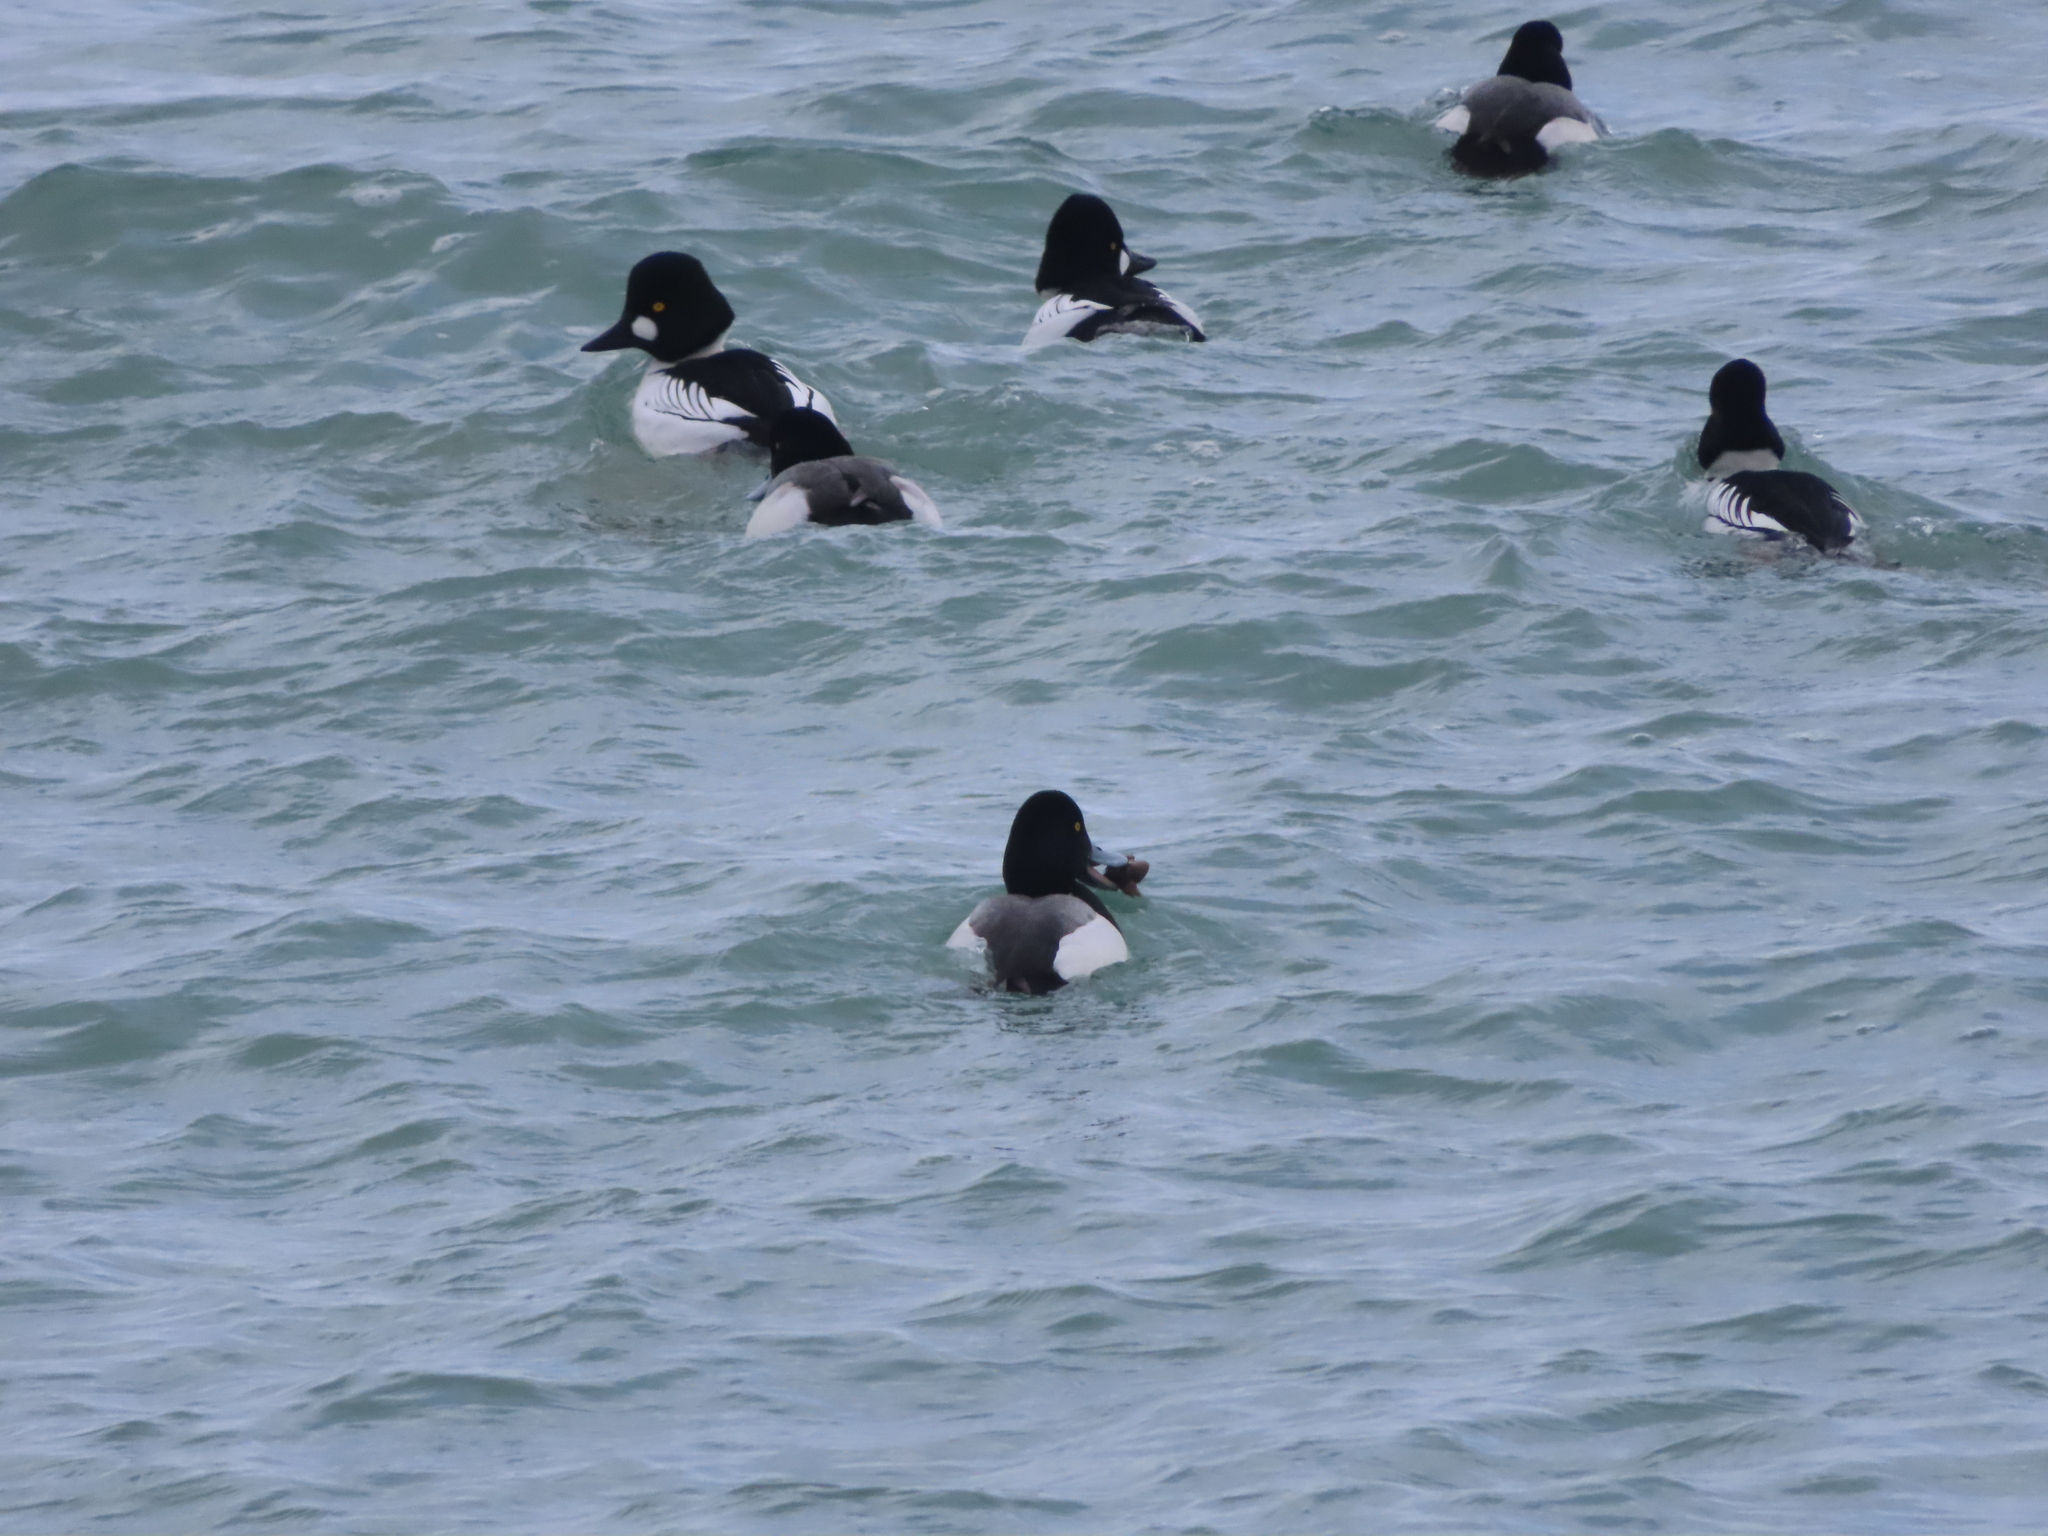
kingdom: Animalia
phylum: Chordata
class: Aves
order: Anseriformes
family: Anatidae
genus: Aythya
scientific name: Aythya marila
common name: Greater scaup
